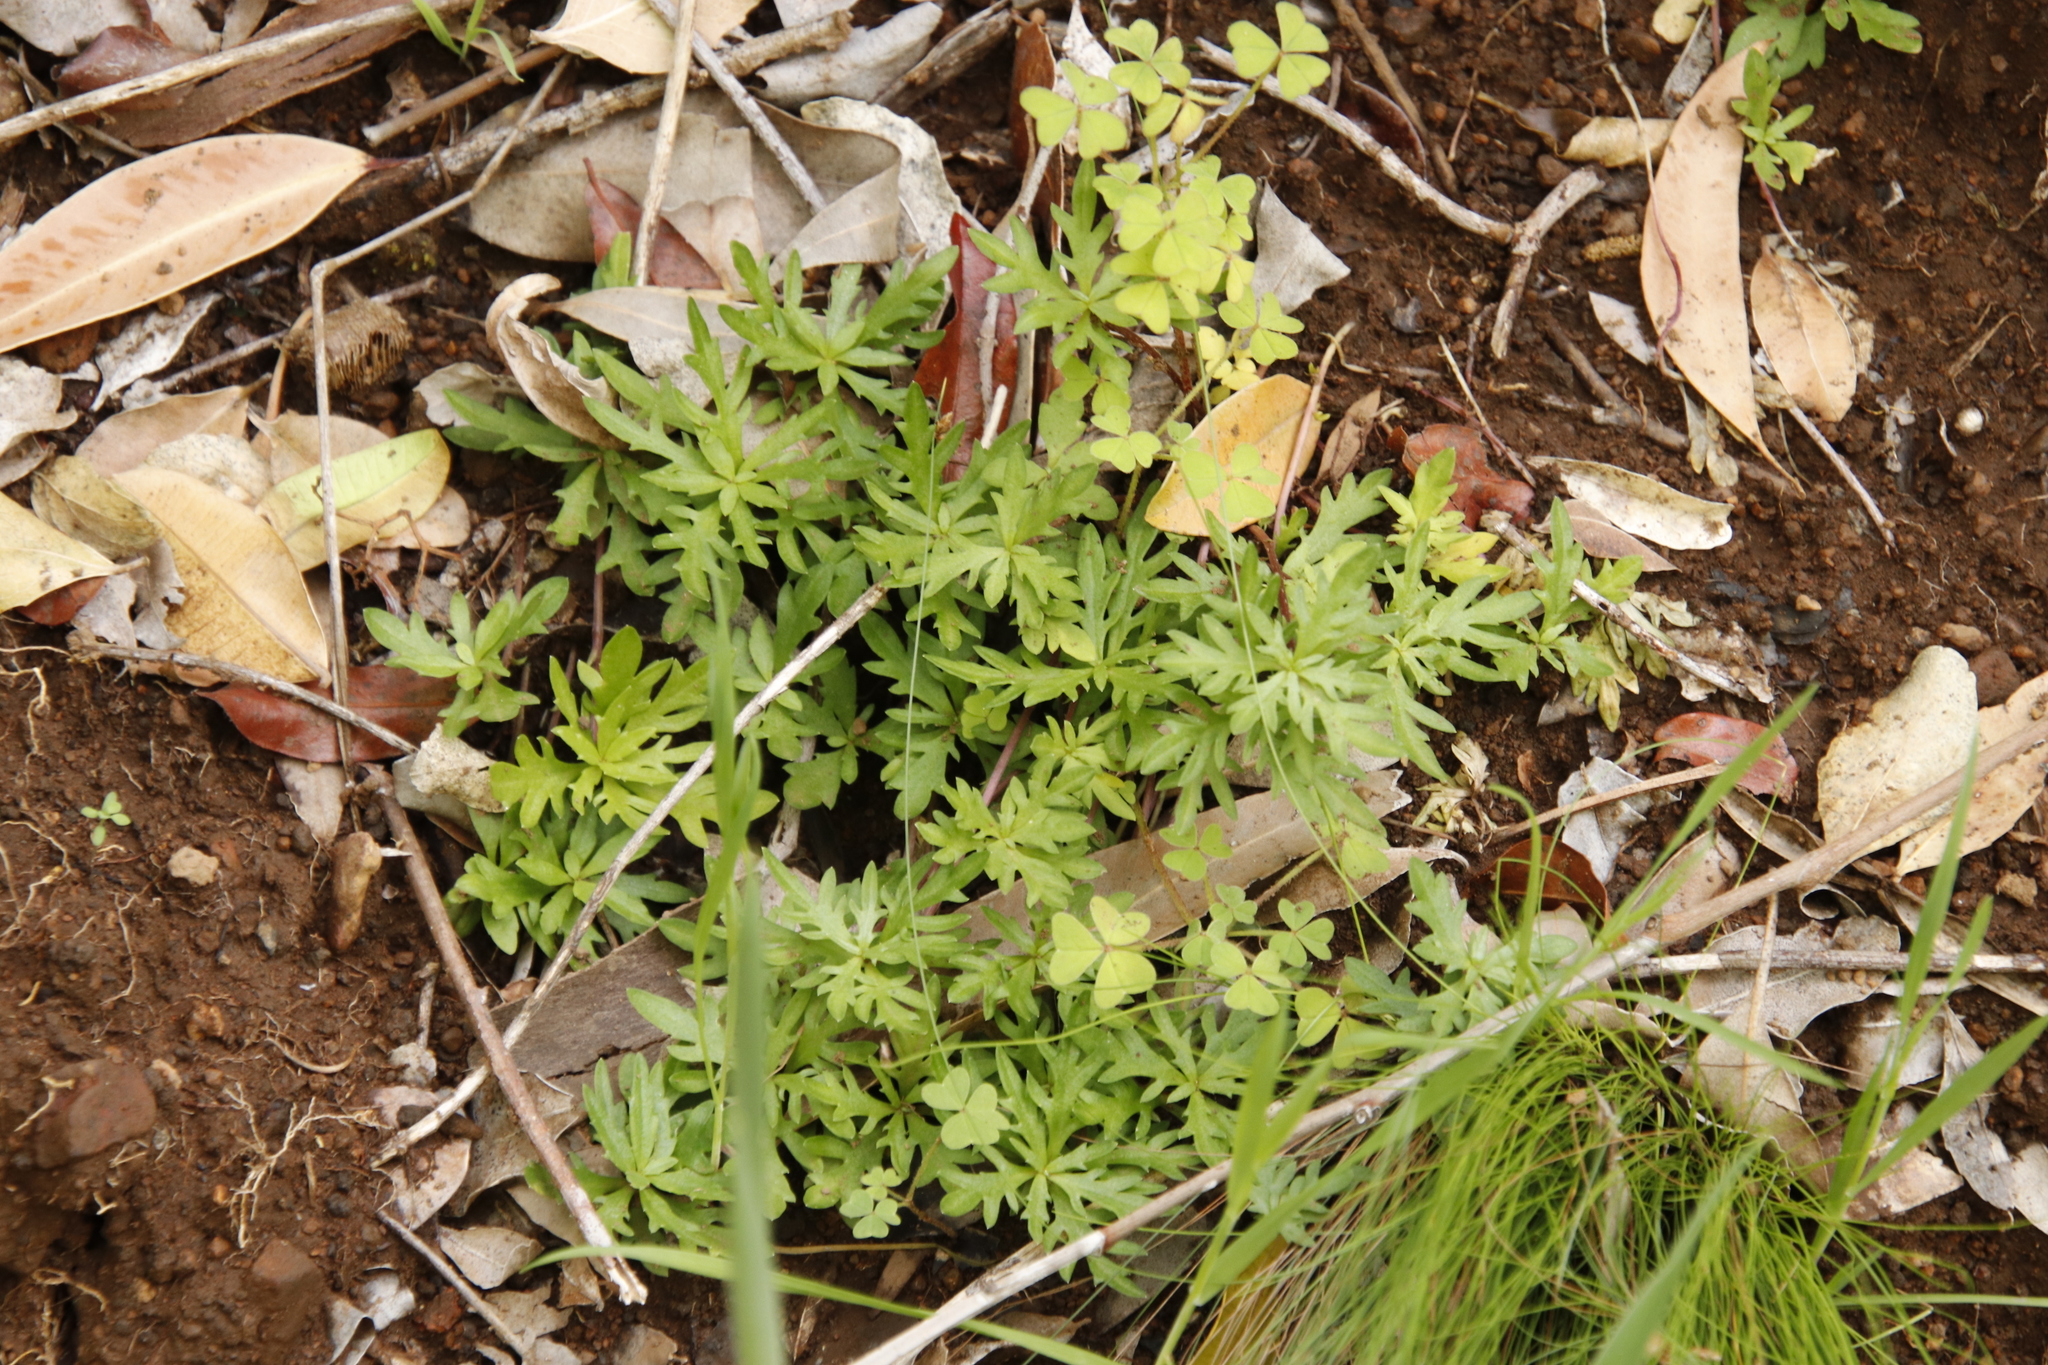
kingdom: Plantae
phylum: Tracheophyta
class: Magnoliopsida
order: Asterales
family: Campanulaceae
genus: Cyphia
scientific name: Cyphia bulbosa
